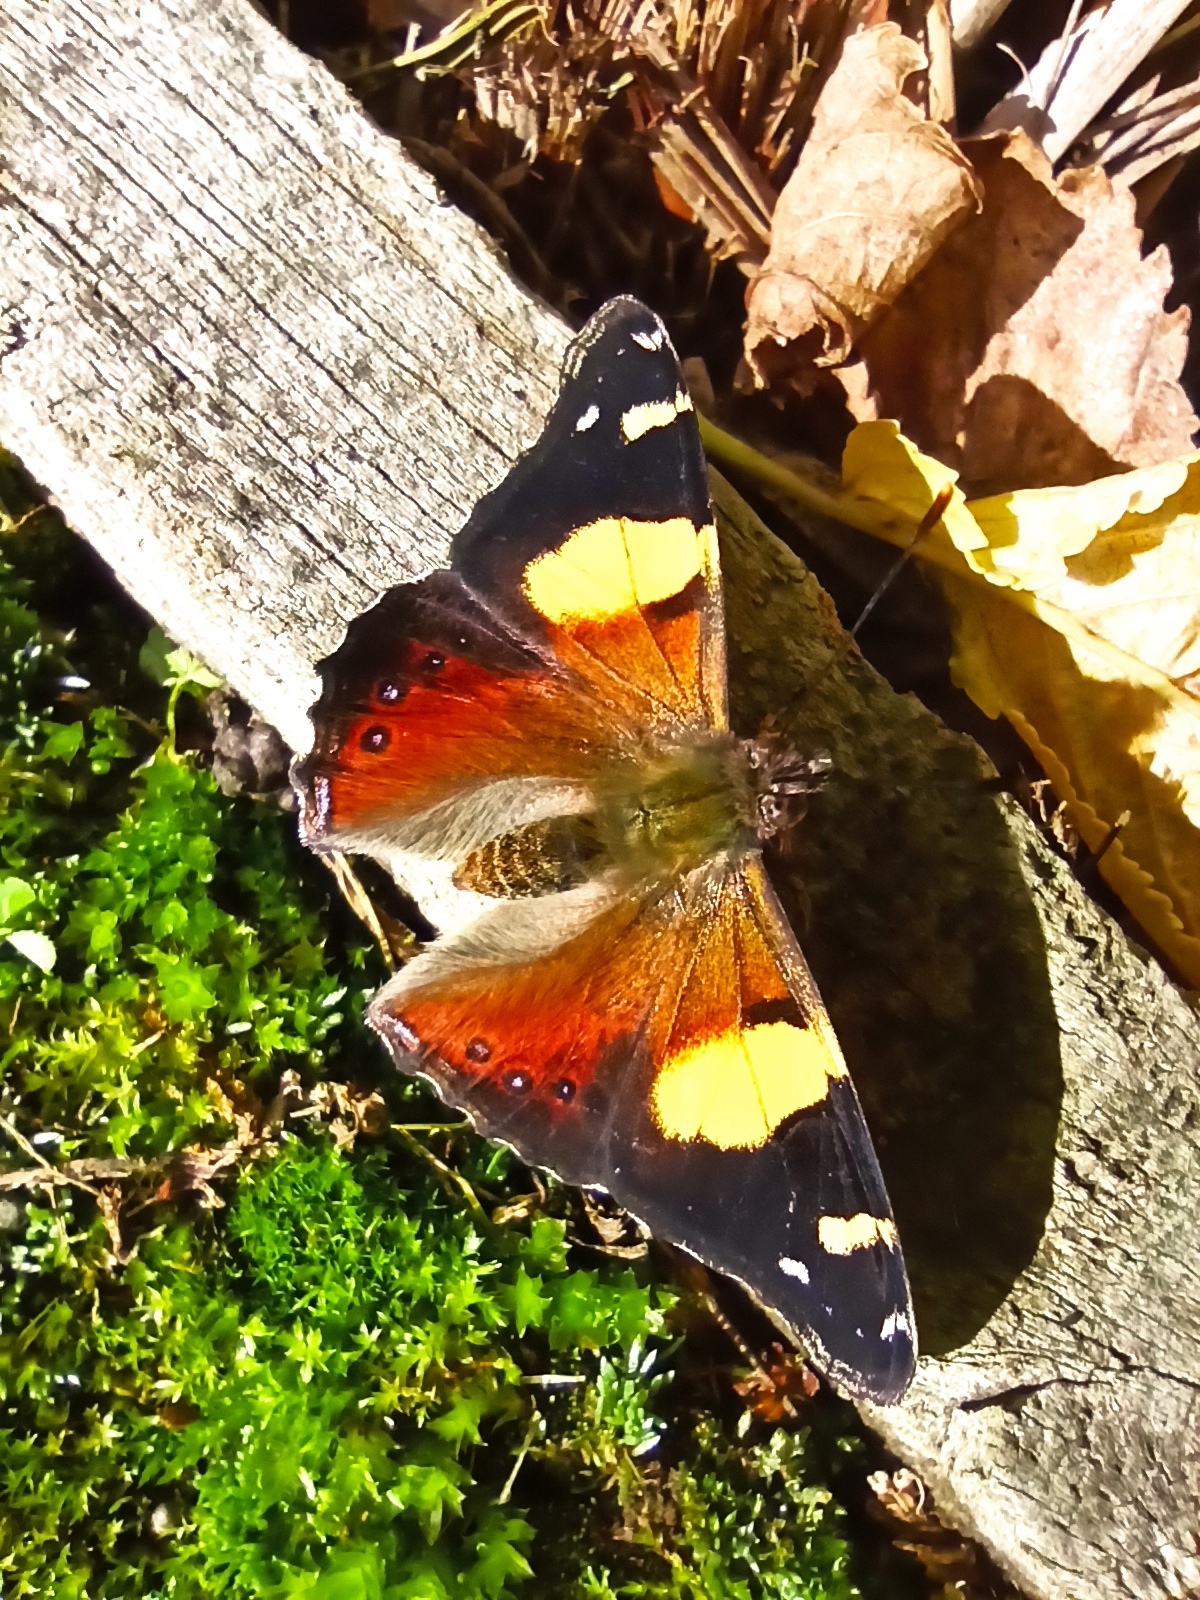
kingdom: Animalia
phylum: Arthropoda
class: Insecta
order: Lepidoptera
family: Nymphalidae
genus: Vanessa
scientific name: Vanessa itea
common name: Yellow admiral
